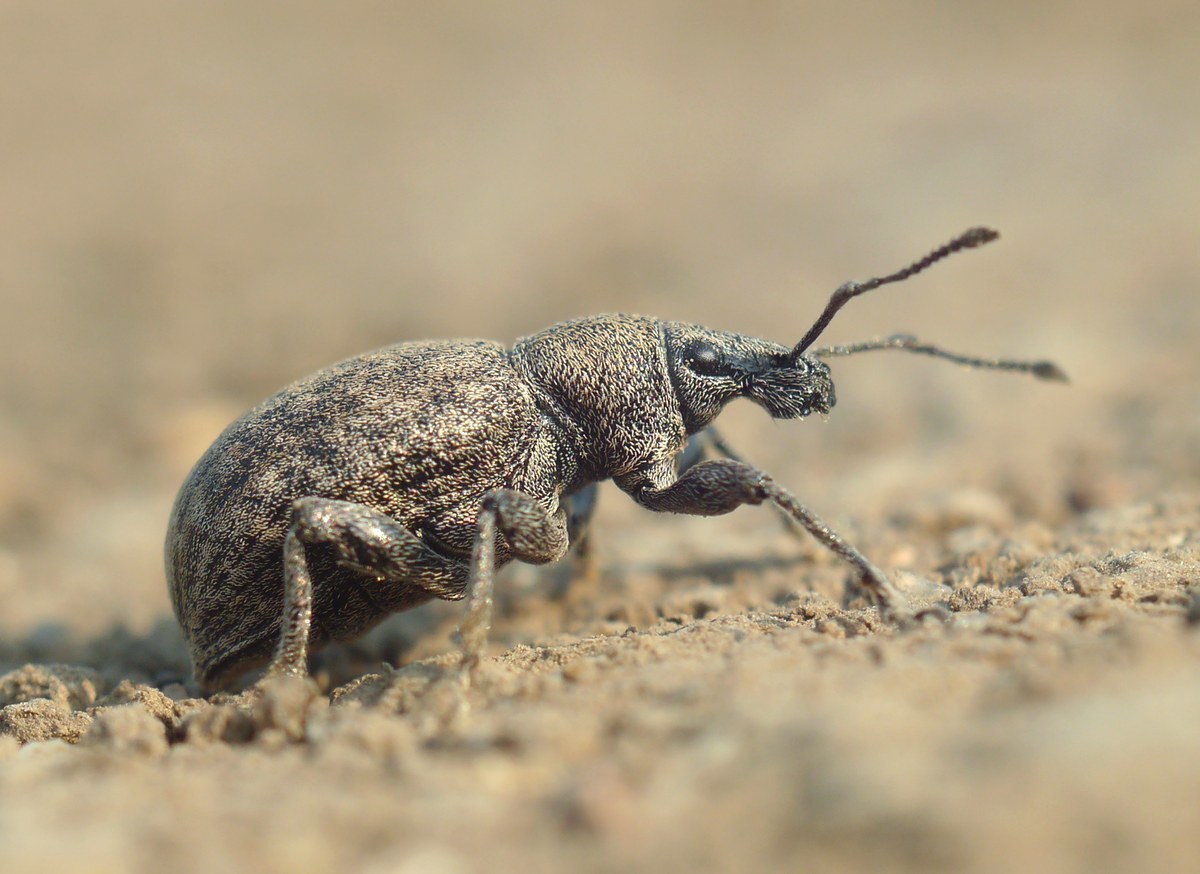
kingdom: Animalia
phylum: Arthropoda
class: Insecta
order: Coleoptera
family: Curculionidae
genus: Otiorhynchus
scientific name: Otiorhynchus ligustici
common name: Weevil
